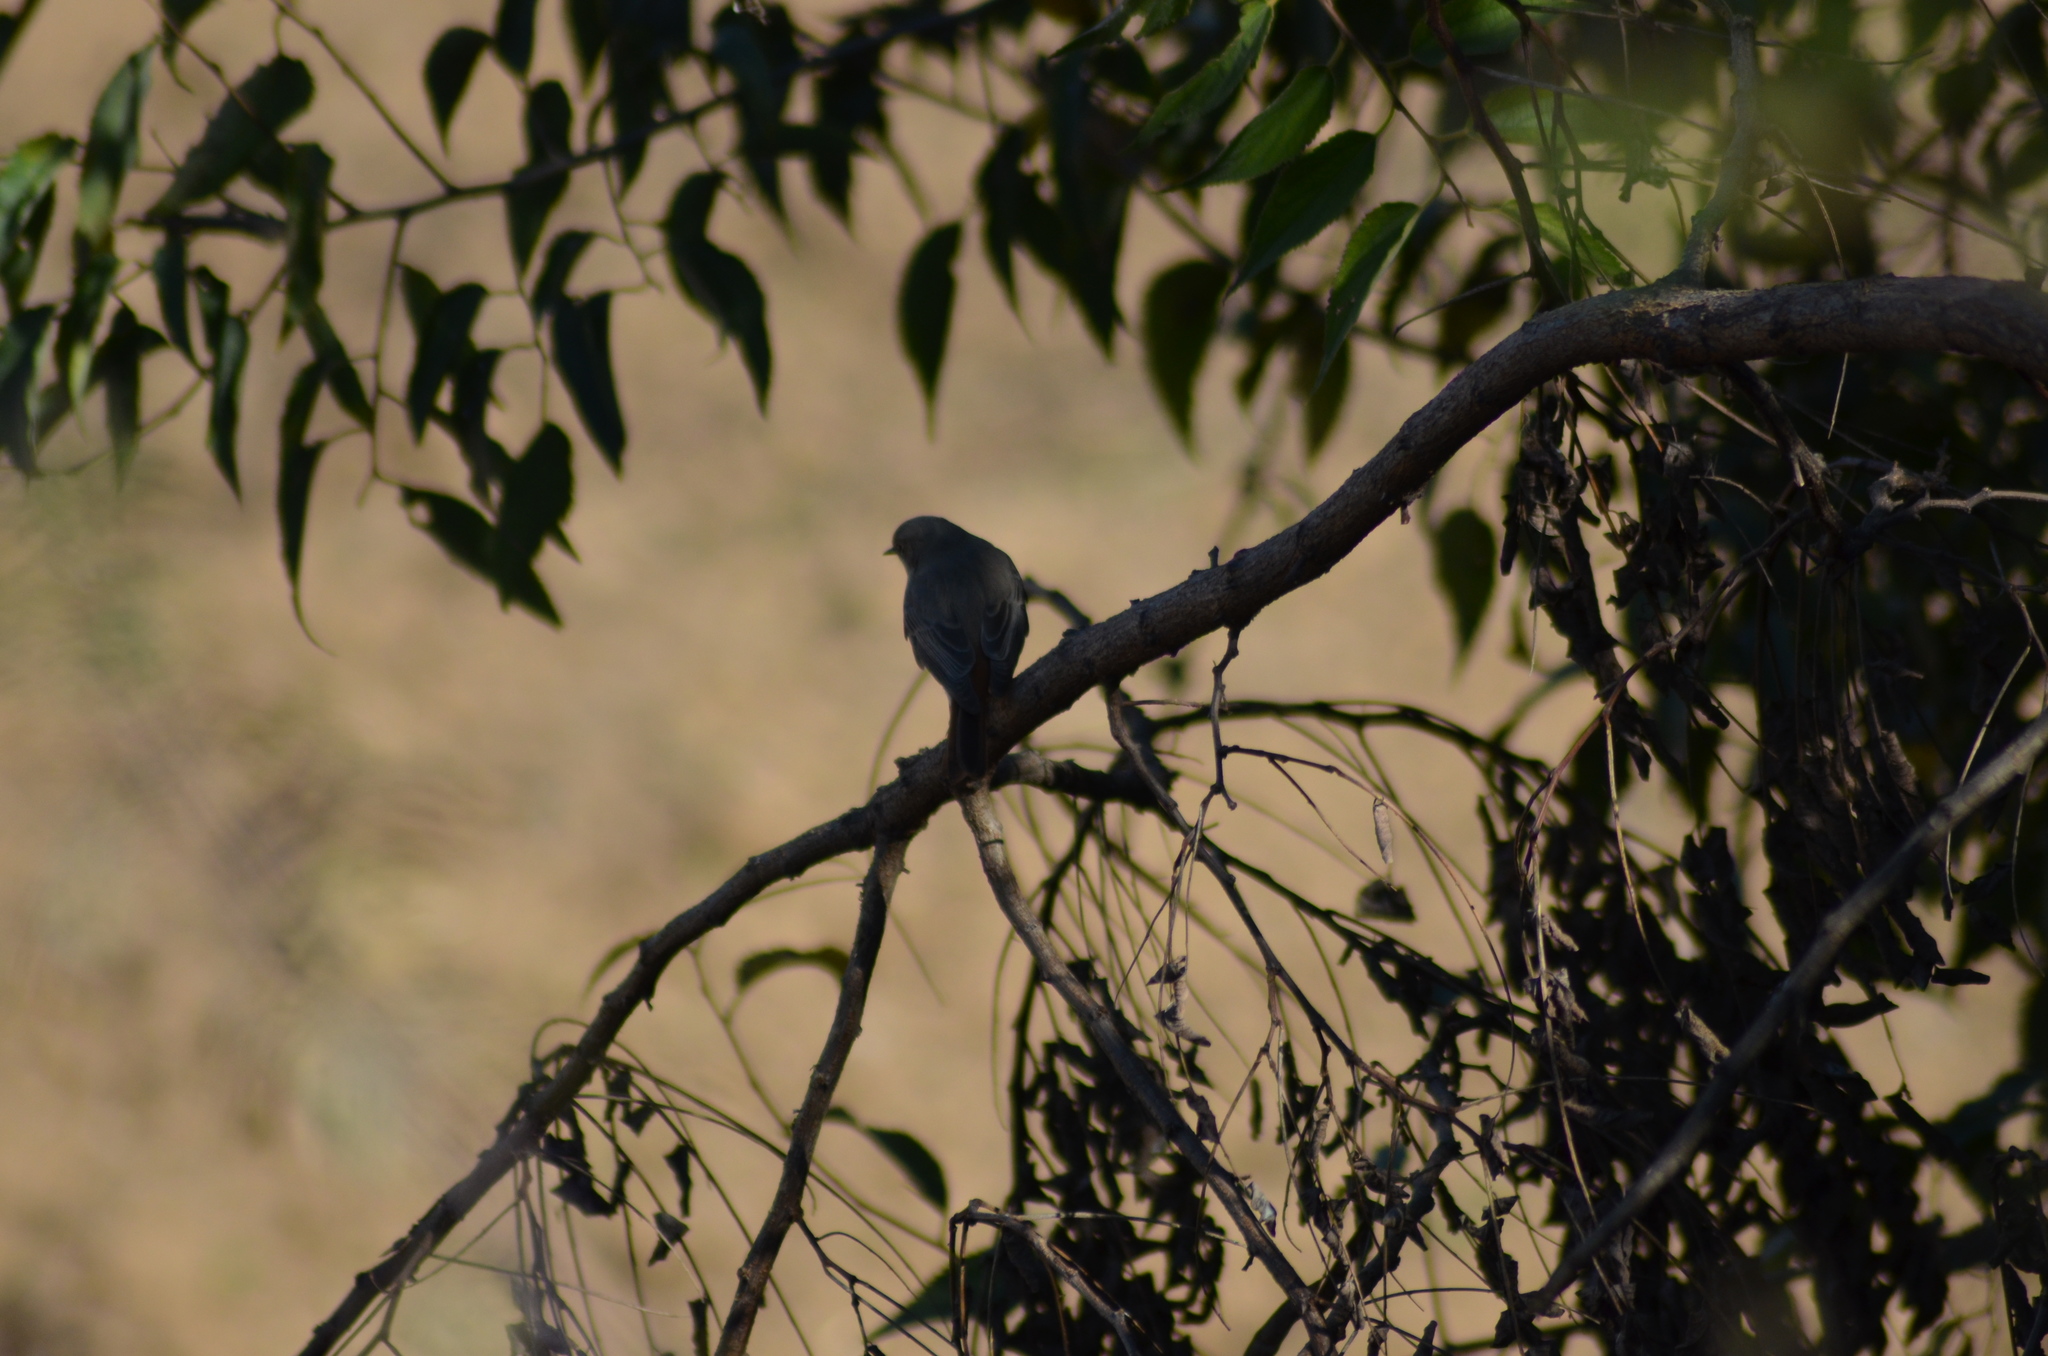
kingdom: Animalia
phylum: Chordata
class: Aves
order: Passeriformes
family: Muscicapidae
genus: Phoenicurus
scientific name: Phoenicurus ochruros
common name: Black redstart
